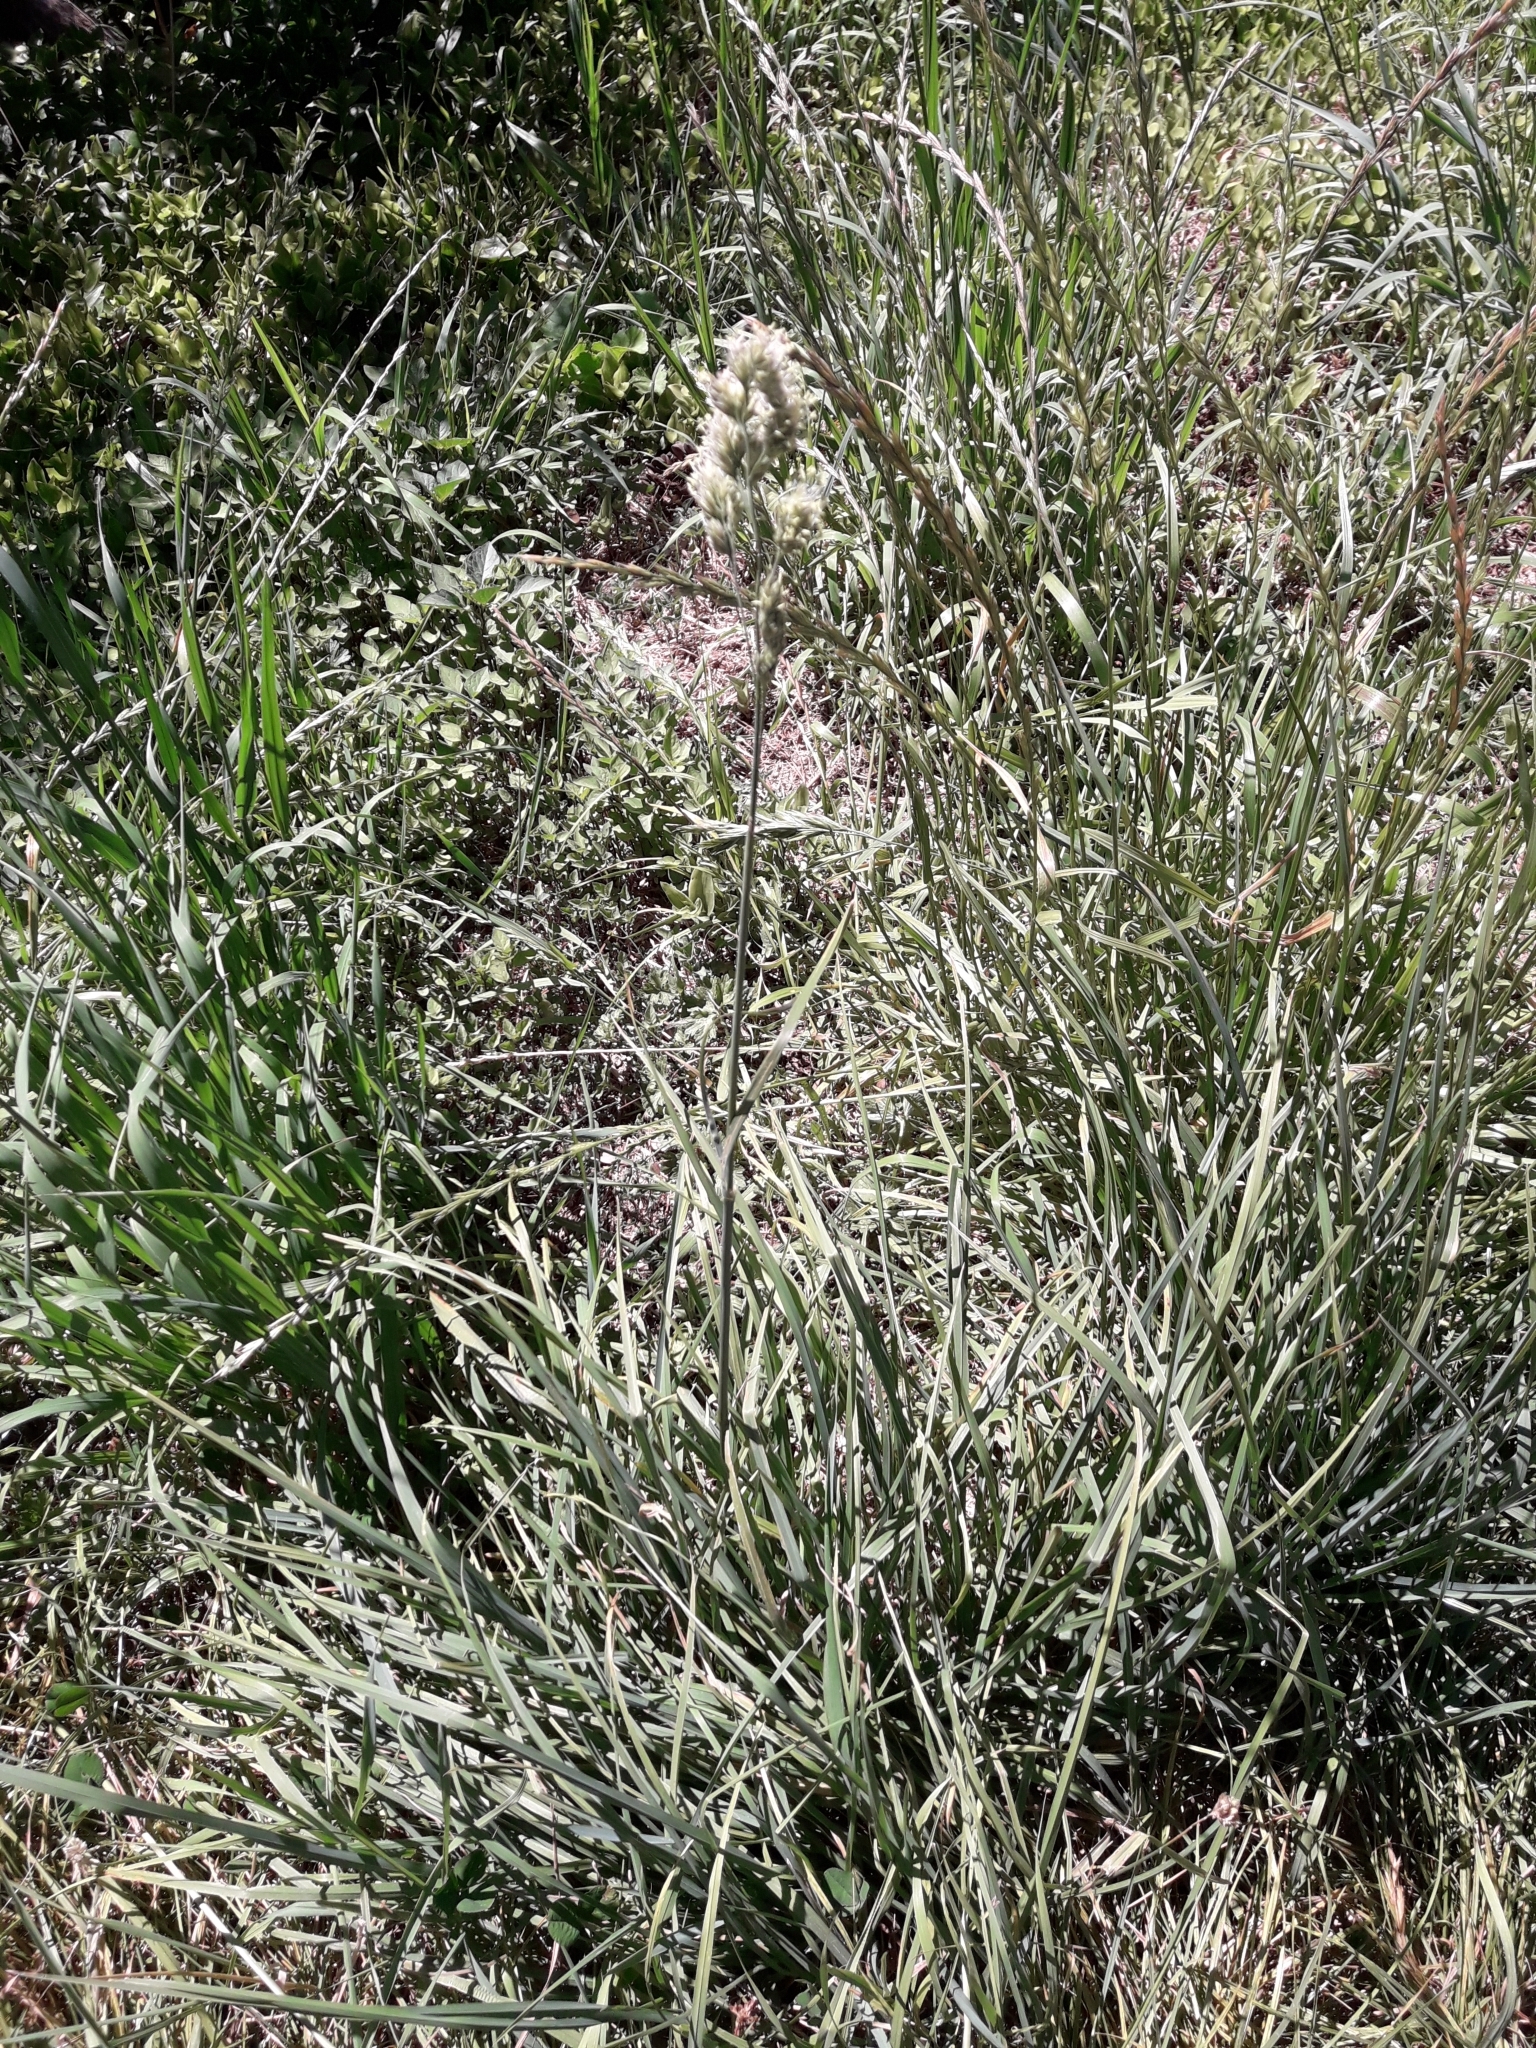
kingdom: Plantae
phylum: Tracheophyta
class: Liliopsida
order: Poales
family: Poaceae
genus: Dactylis
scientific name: Dactylis glomerata
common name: Orchardgrass
